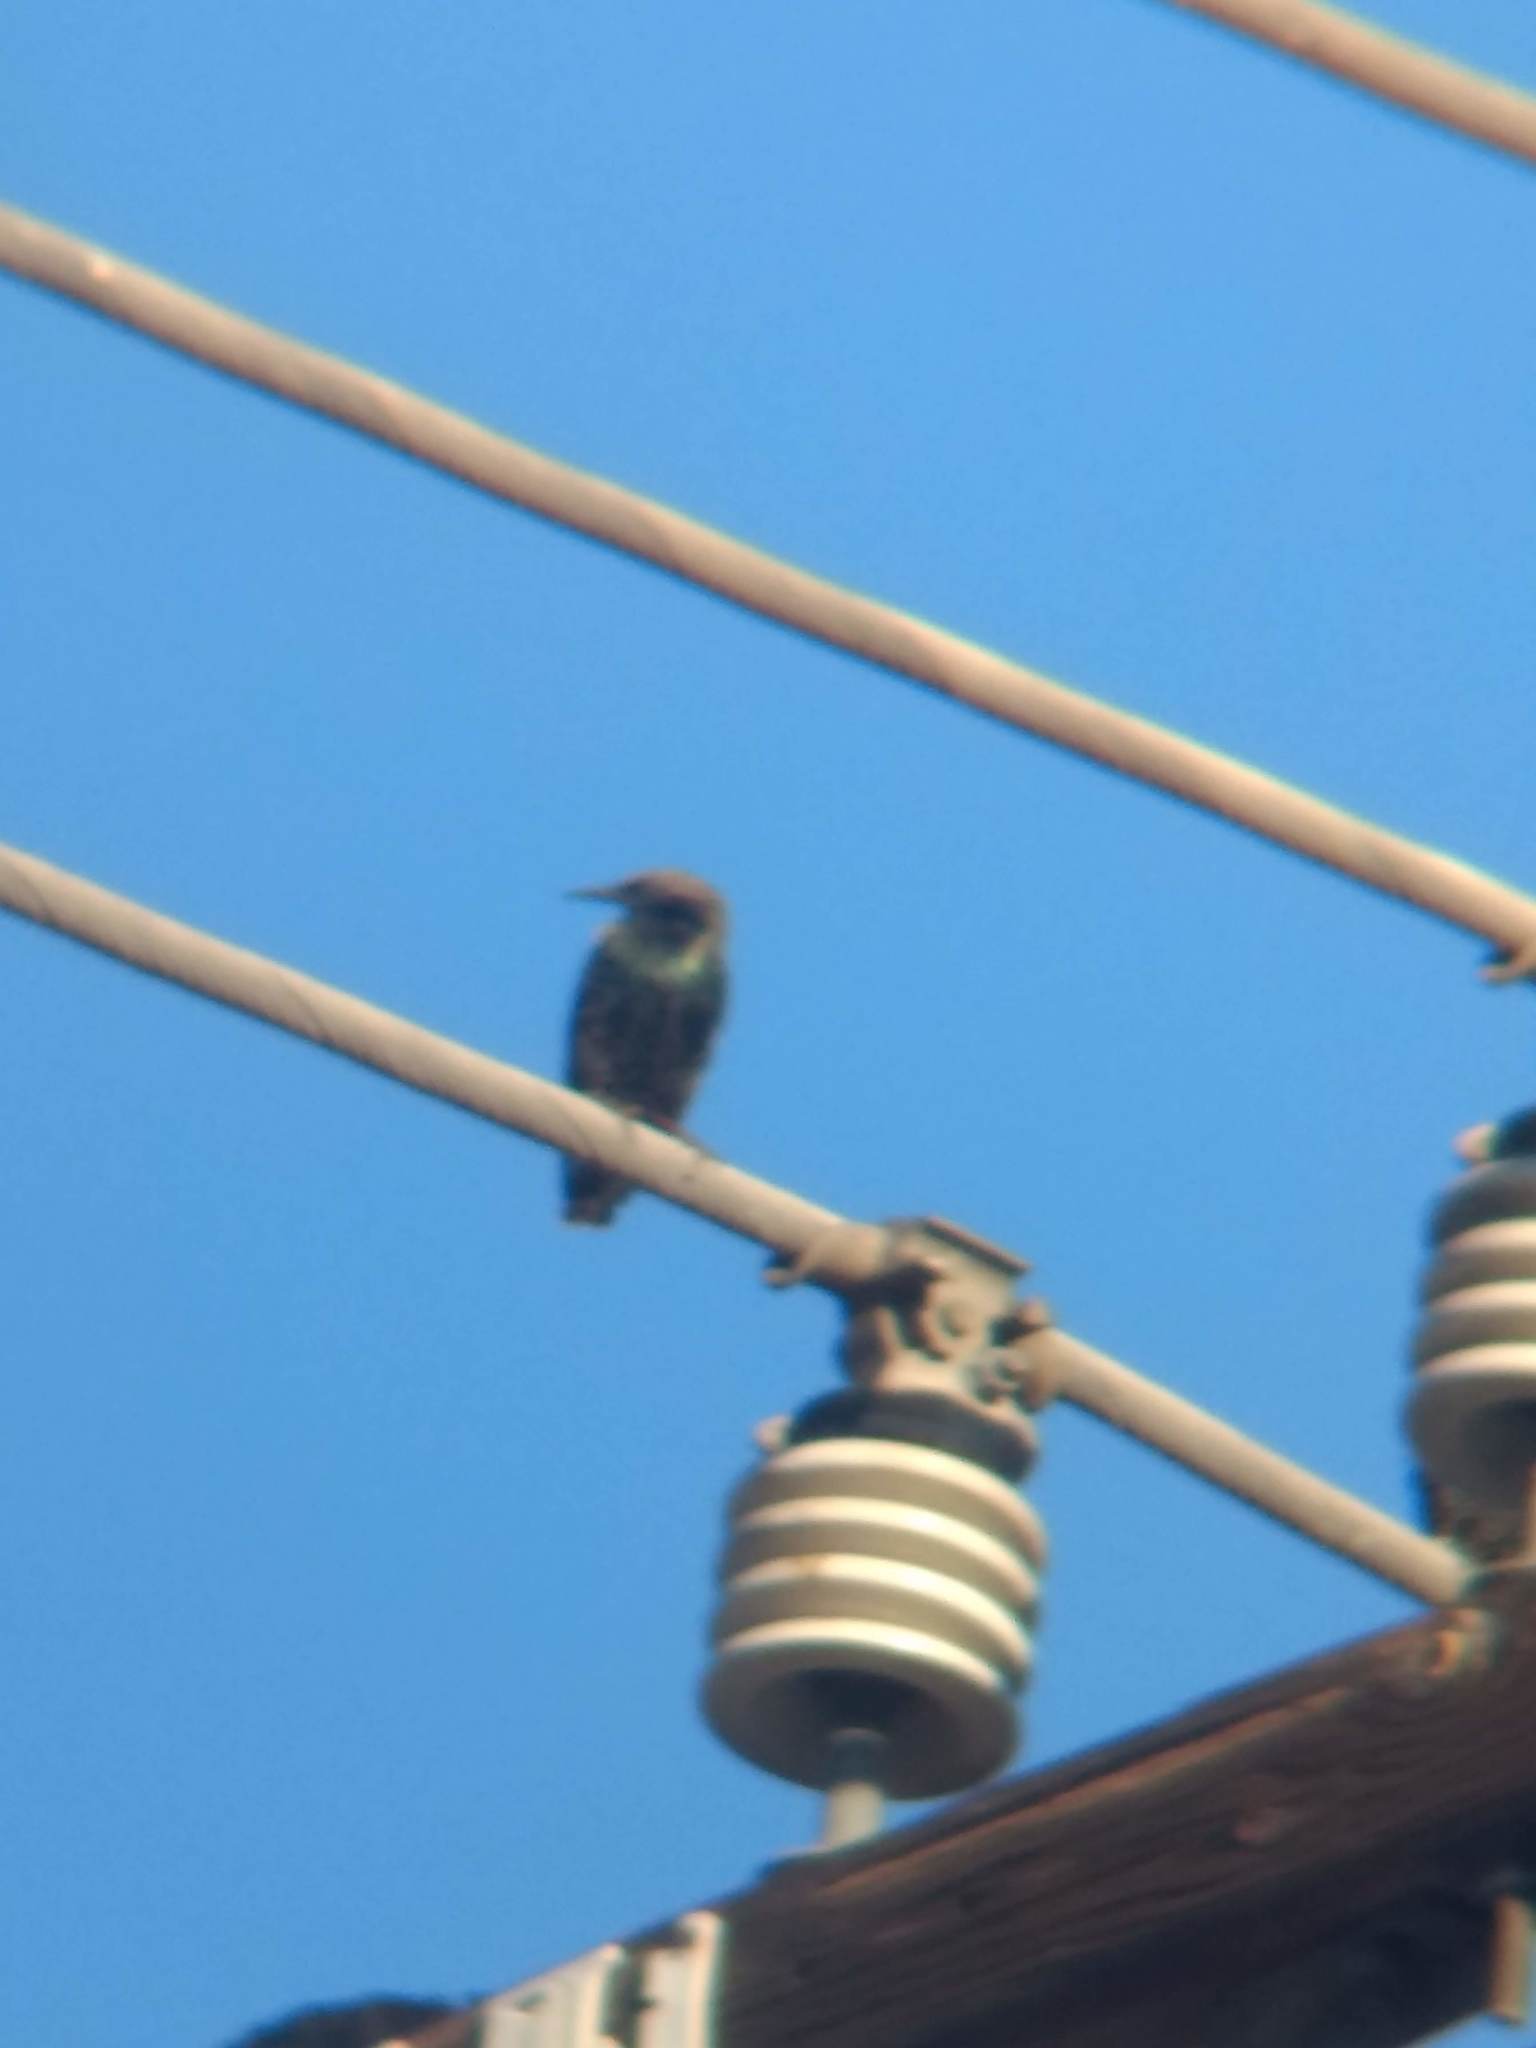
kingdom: Animalia
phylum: Chordata
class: Aves
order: Passeriformes
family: Sturnidae
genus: Sturnus
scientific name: Sturnus vulgaris
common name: Common starling
